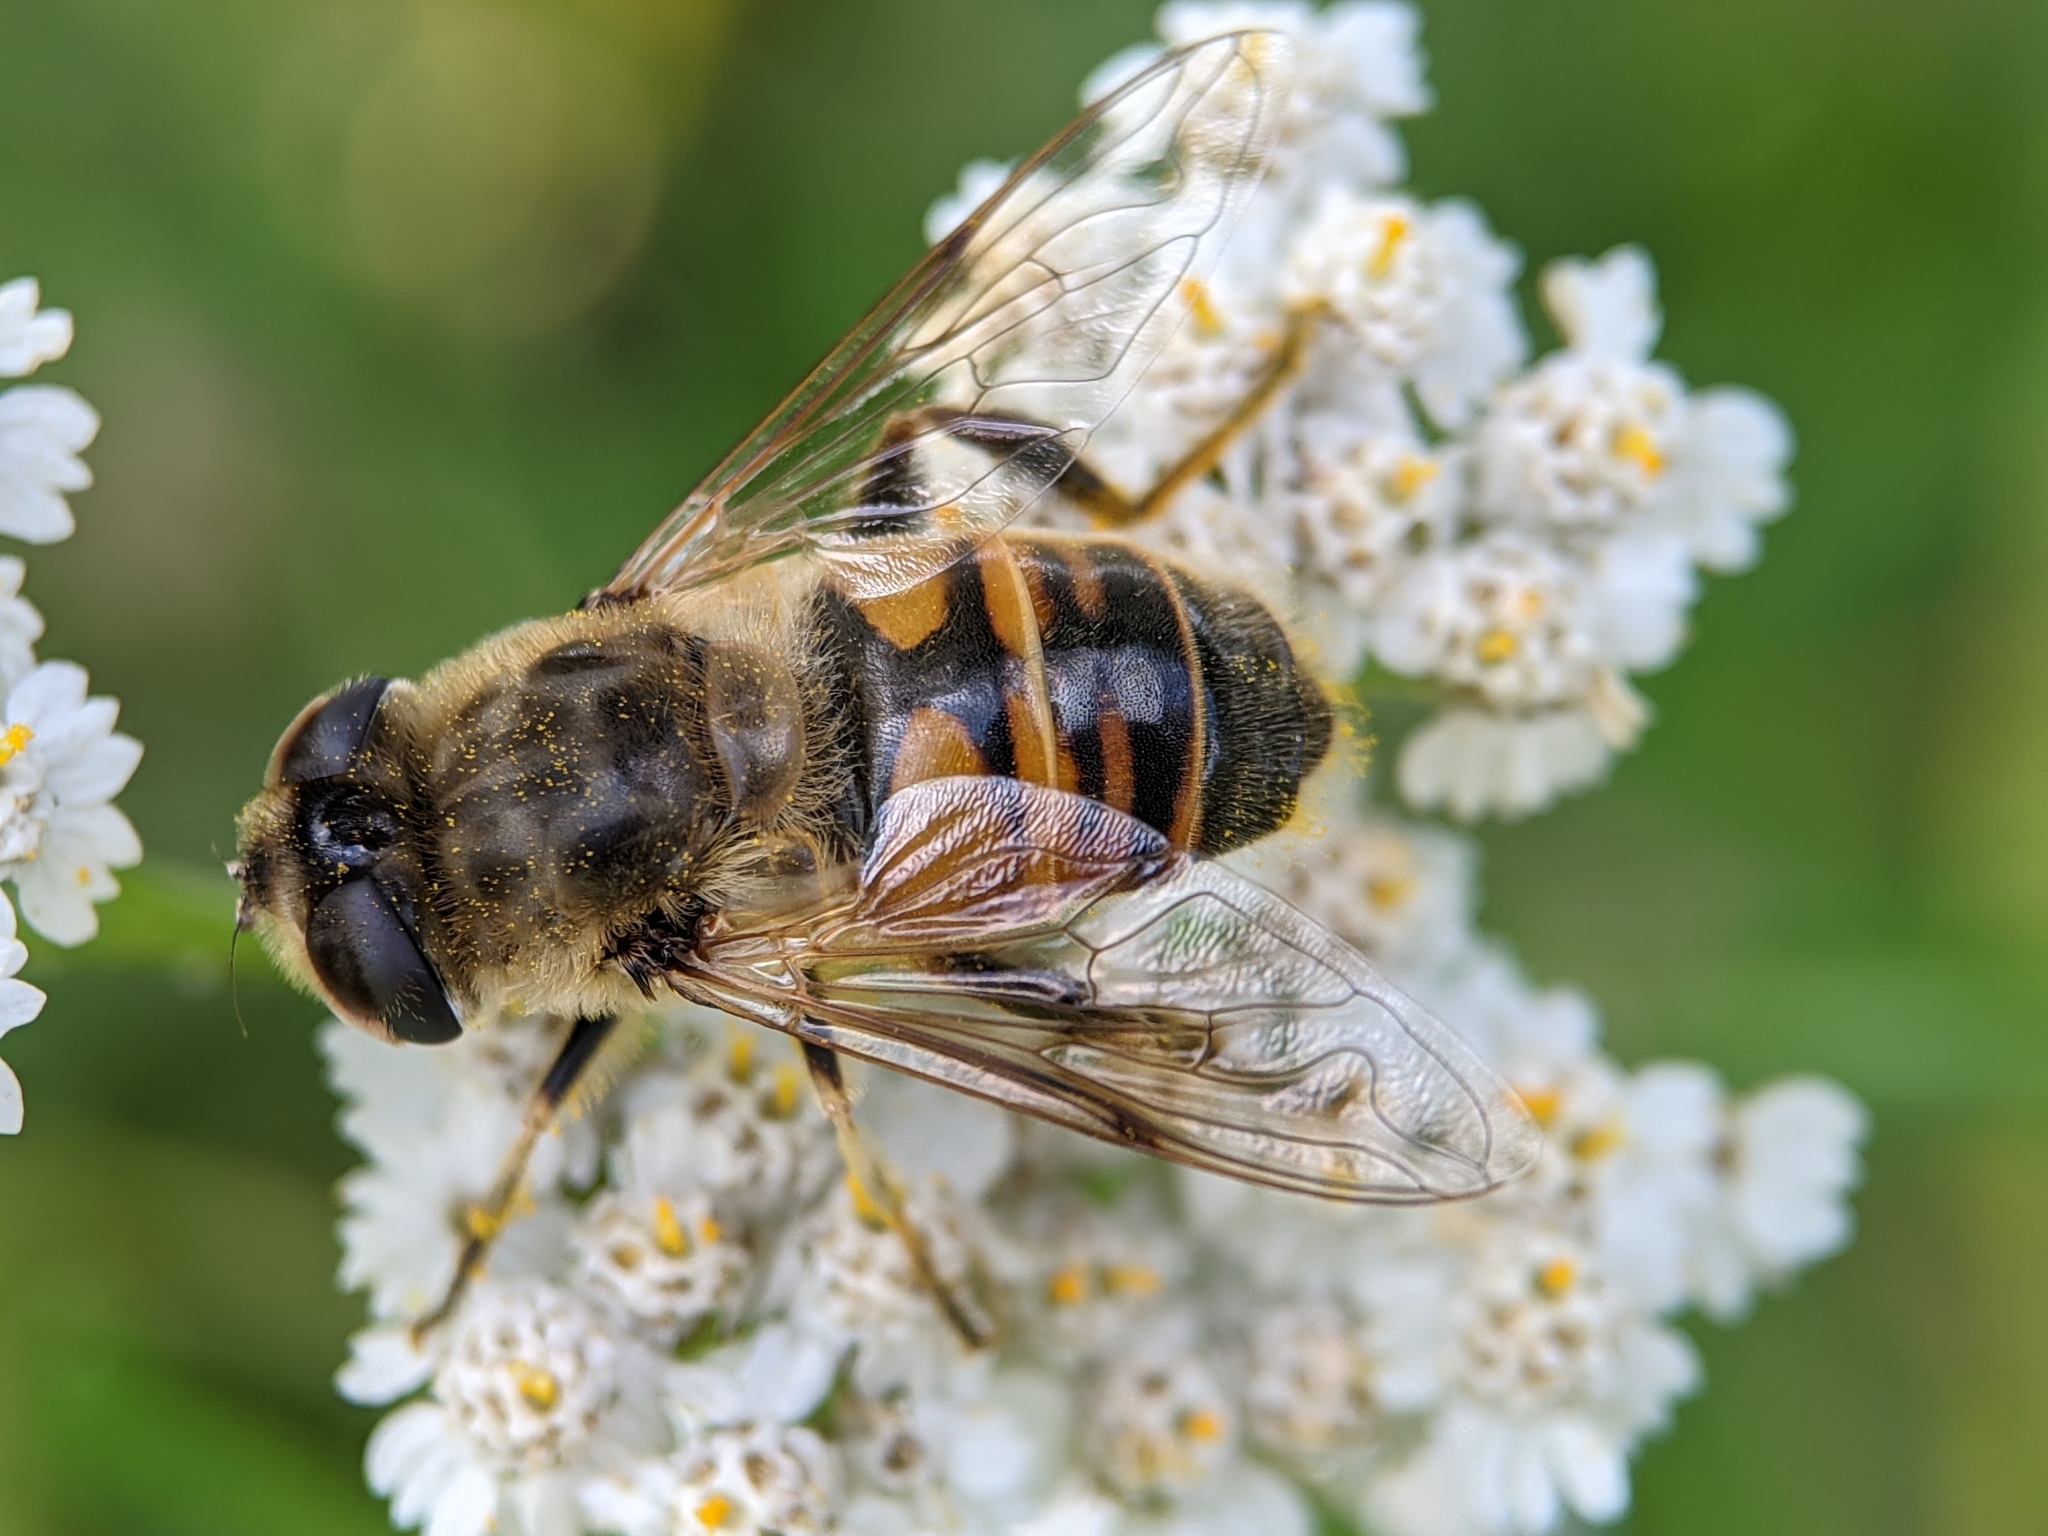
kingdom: Animalia
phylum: Arthropoda
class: Insecta
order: Diptera
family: Syrphidae
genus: Eristalis
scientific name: Eristalis tenax
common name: Drone fly
